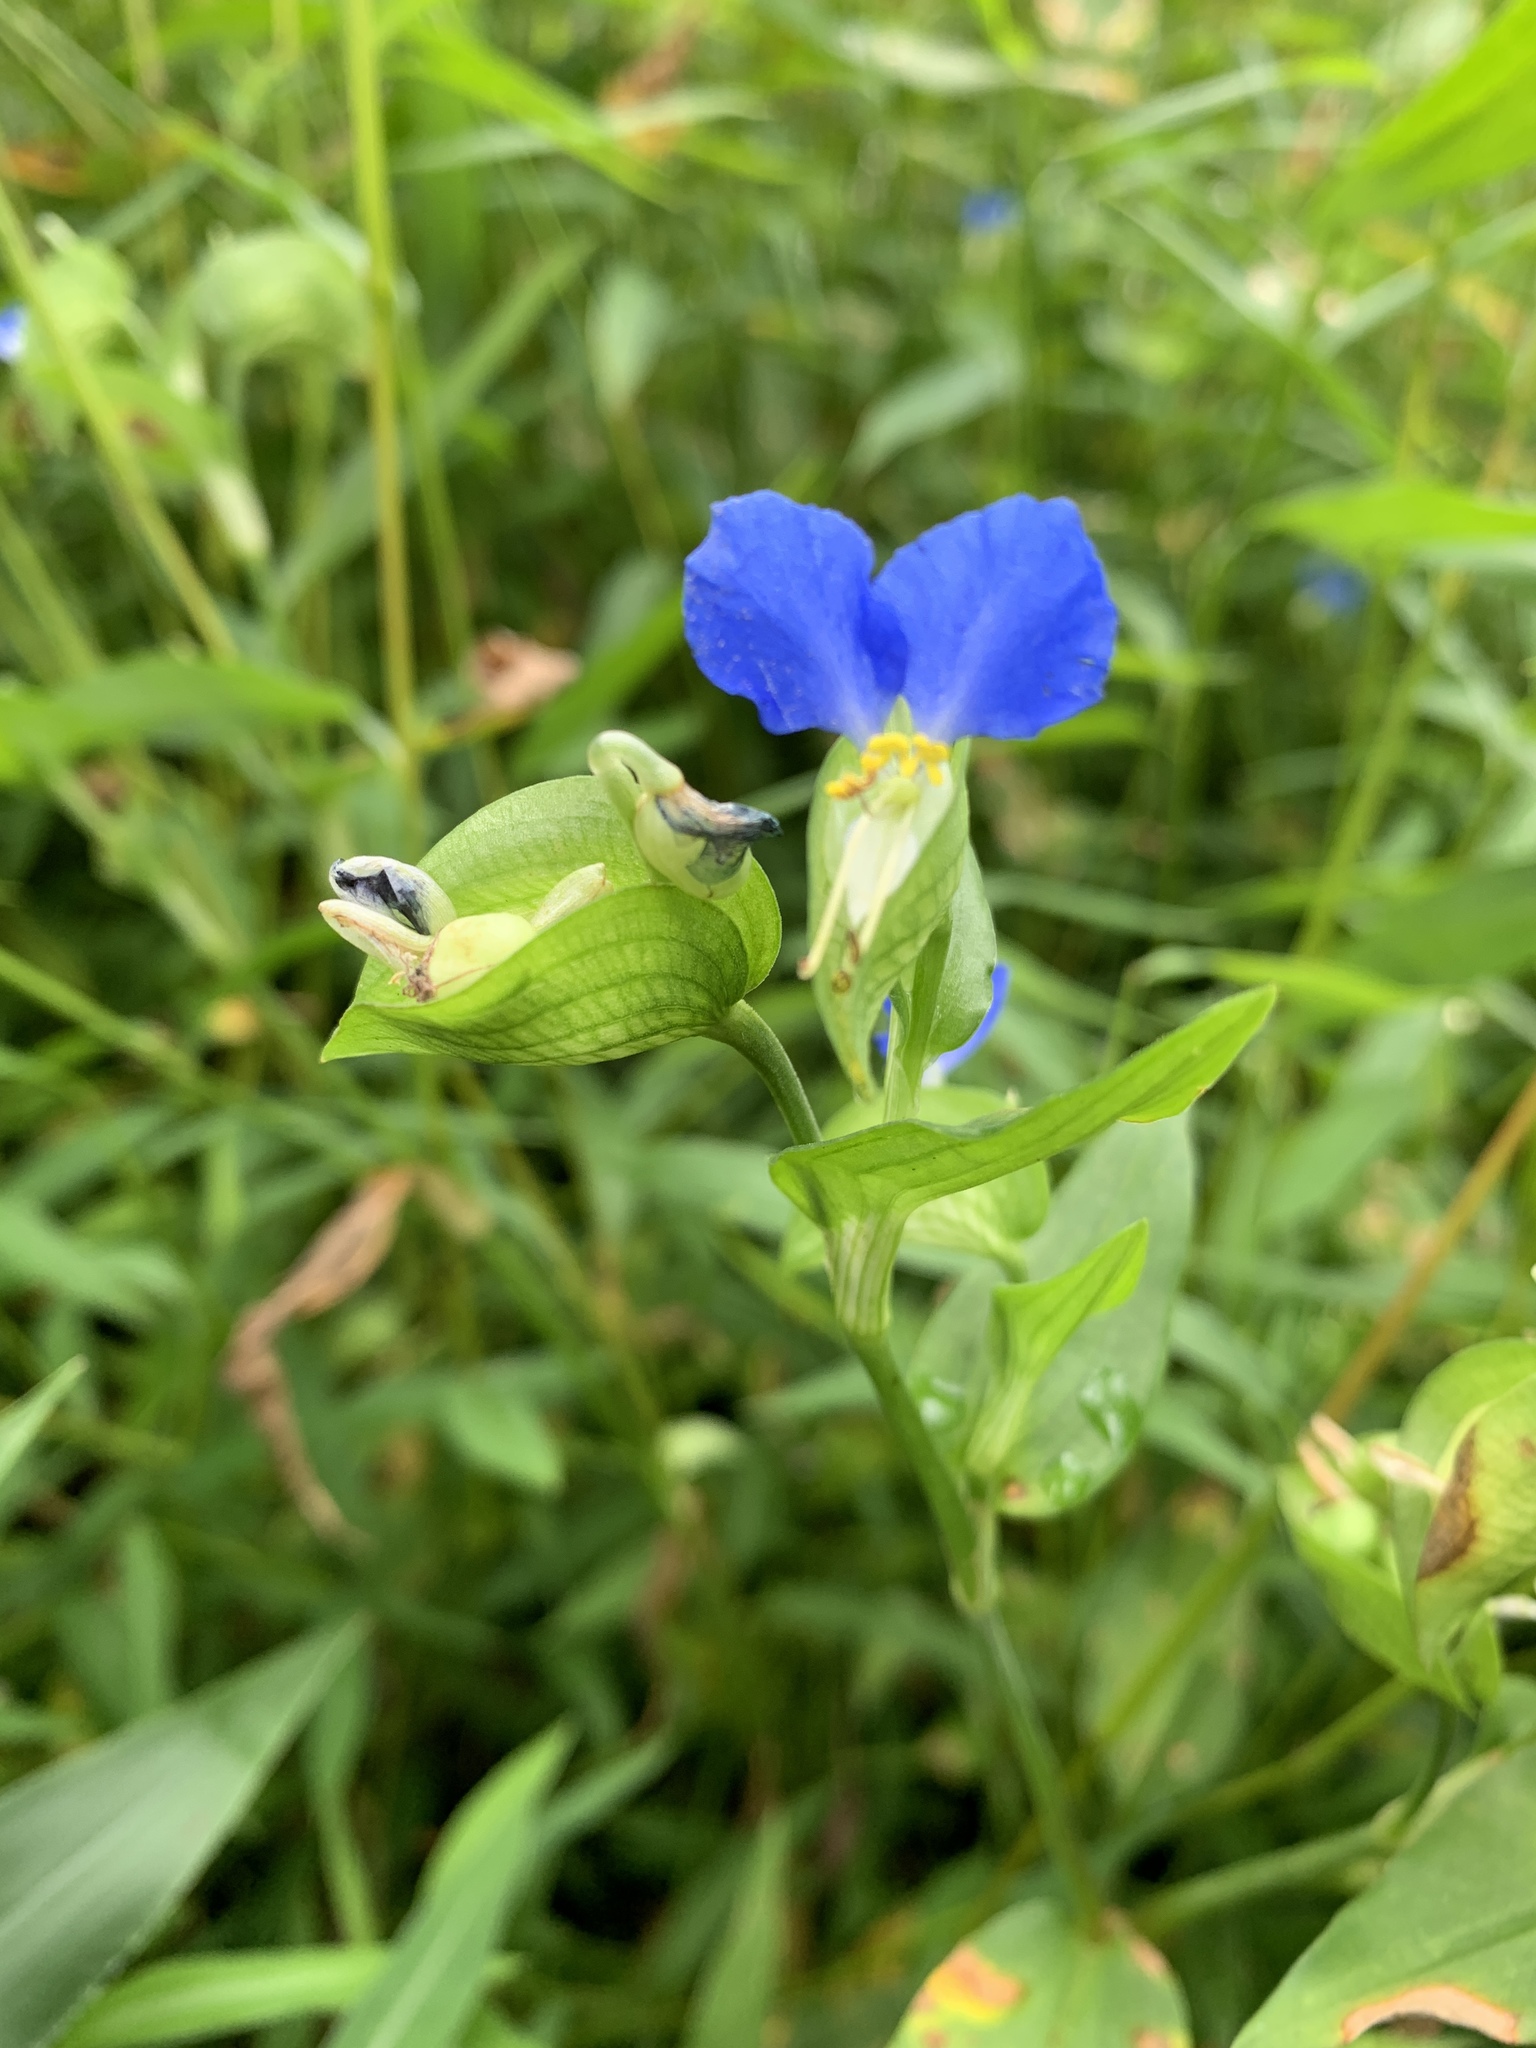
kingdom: Plantae
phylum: Tracheophyta
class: Liliopsida
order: Commelinales
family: Commelinaceae
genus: Commelina
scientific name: Commelina communis
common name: Asiatic dayflower
